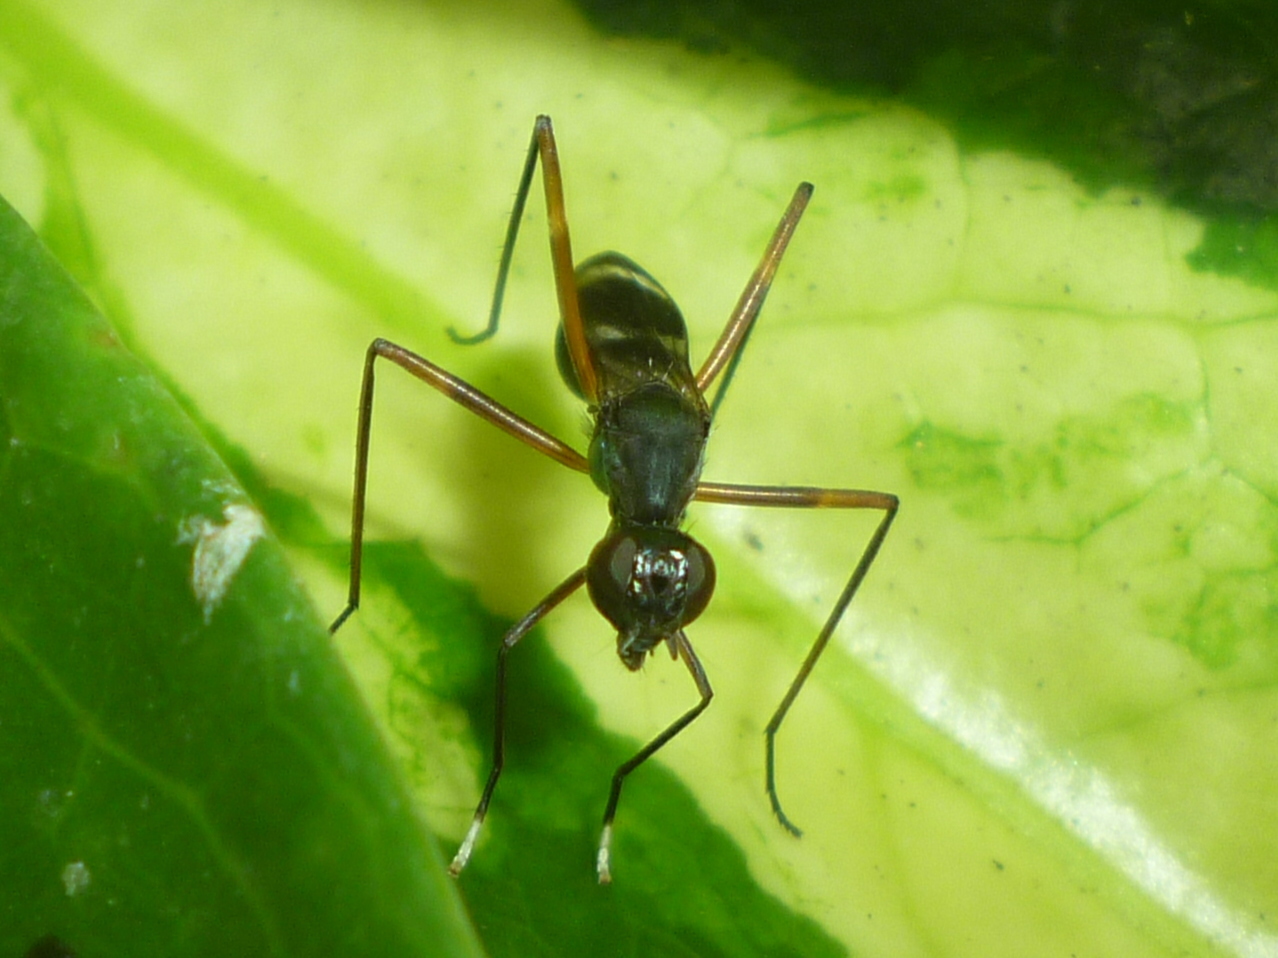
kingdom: Animalia
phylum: Arthropoda
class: Insecta
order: Diptera
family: Micropezidae
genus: Taeniaptera
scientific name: Taeniaptera trivittata
